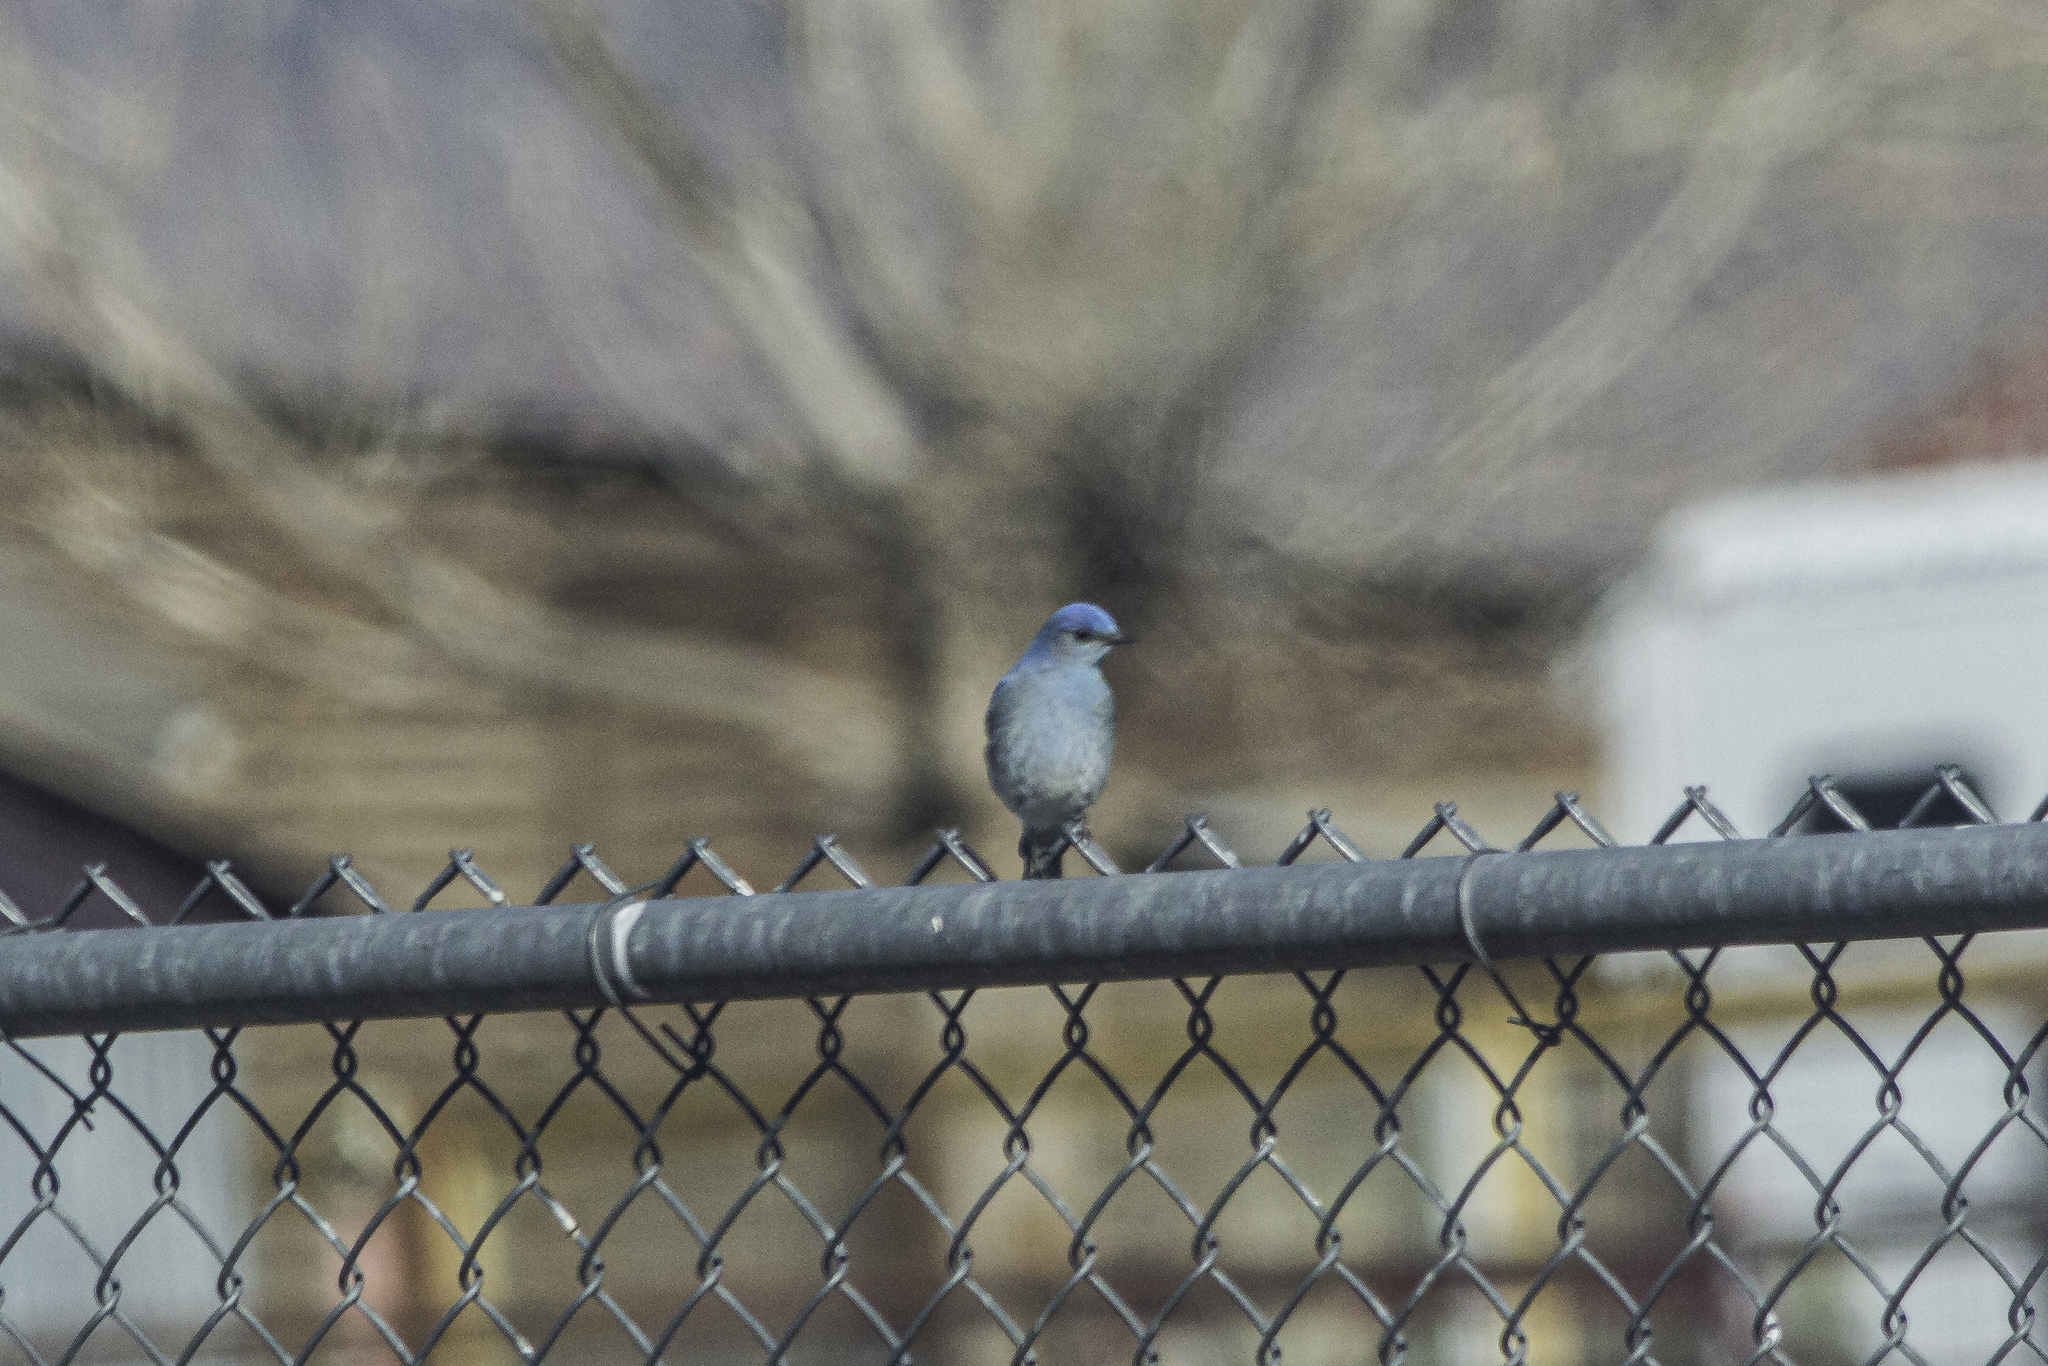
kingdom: Animalia
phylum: Chordata
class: Aves
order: Passeriformes
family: Turdidae
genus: Sialia
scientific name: Sialia currucoides
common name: Mountain bluebird
